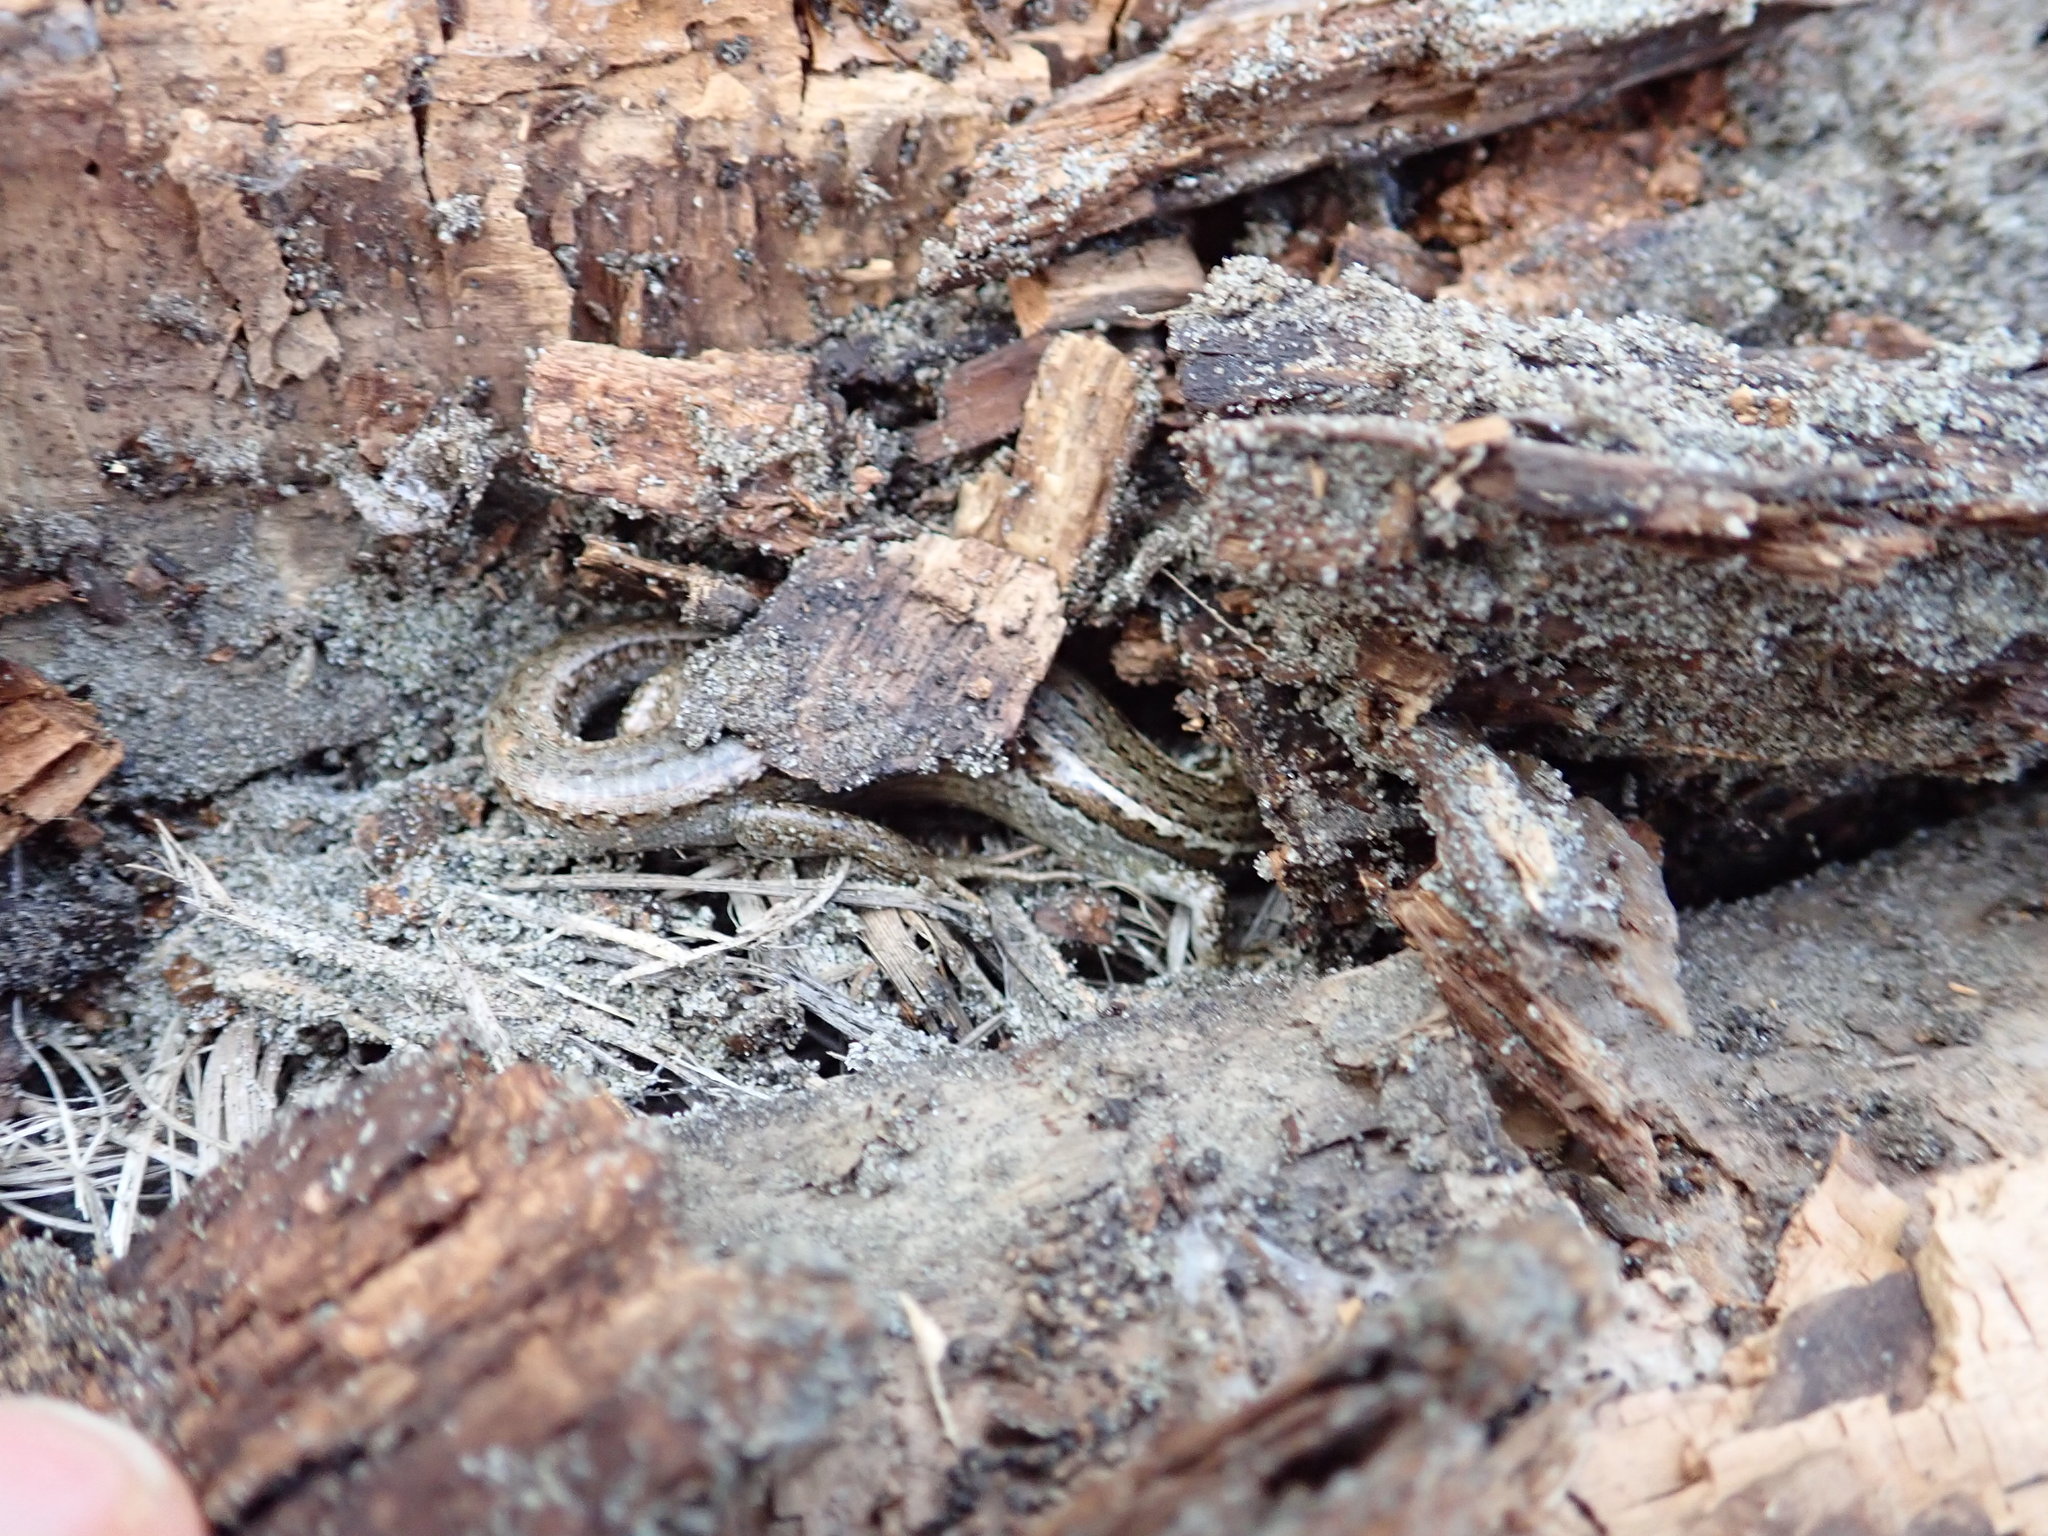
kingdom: Animalia
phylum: Chordata
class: Squamata
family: Scincidae
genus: Oligosoma
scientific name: Oligosoma polychroma
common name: Common new zealand skink
